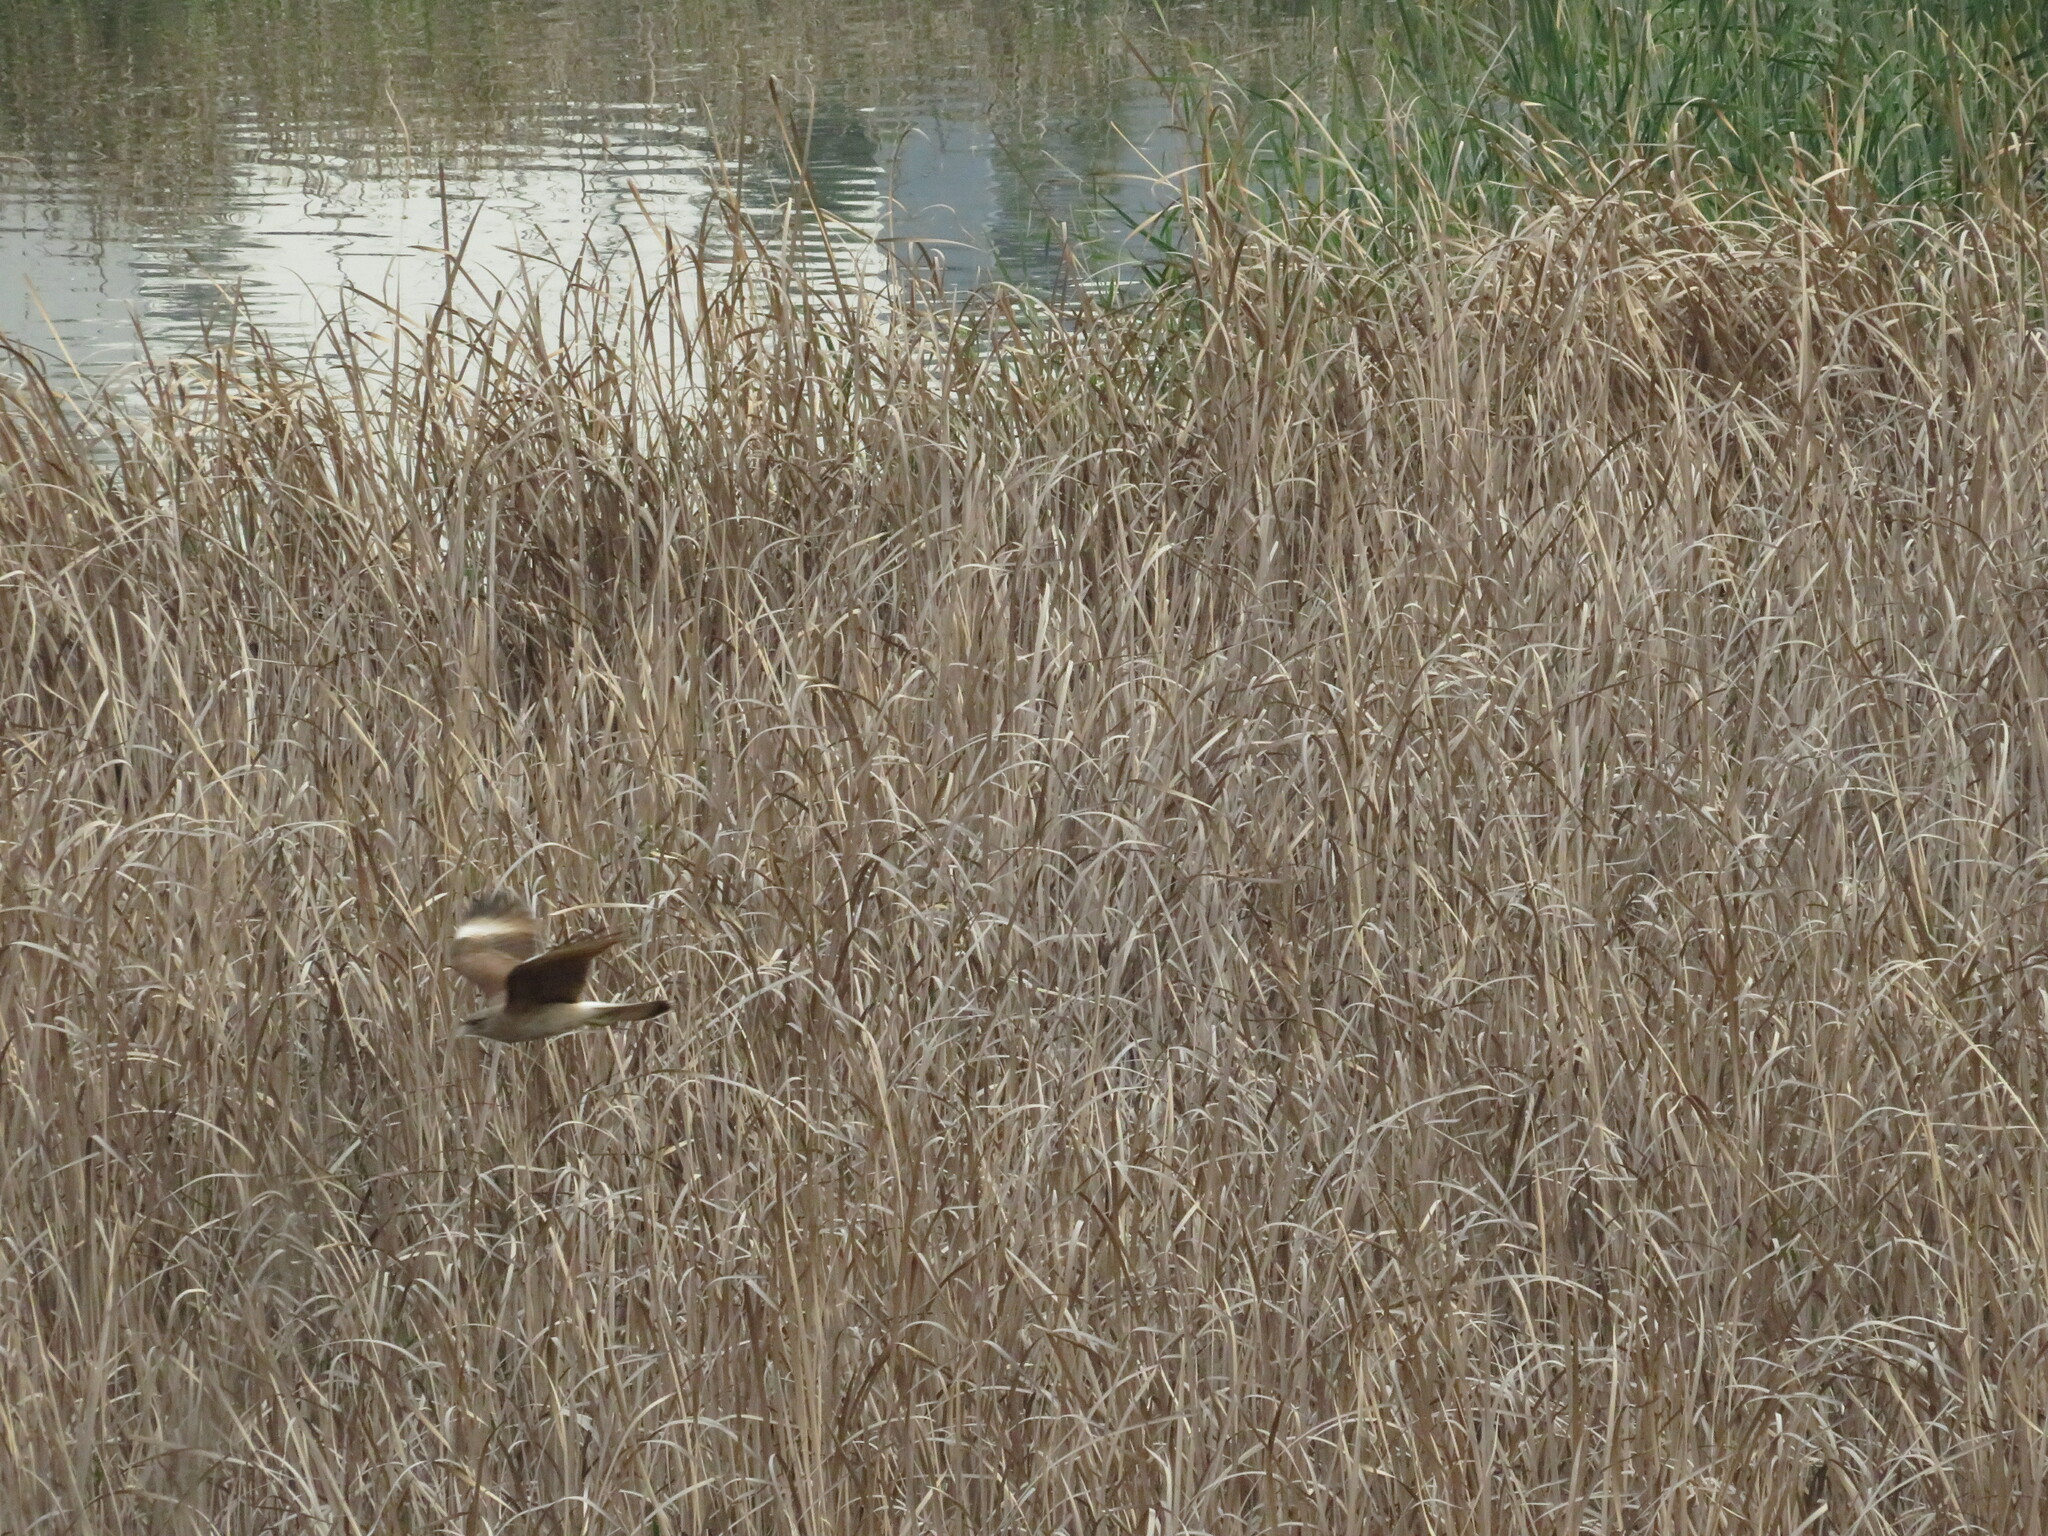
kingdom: Animalia
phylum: Chordata
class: Aves
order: Falconiformes
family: Falconidae
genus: Daptrius
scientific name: Daptrius
